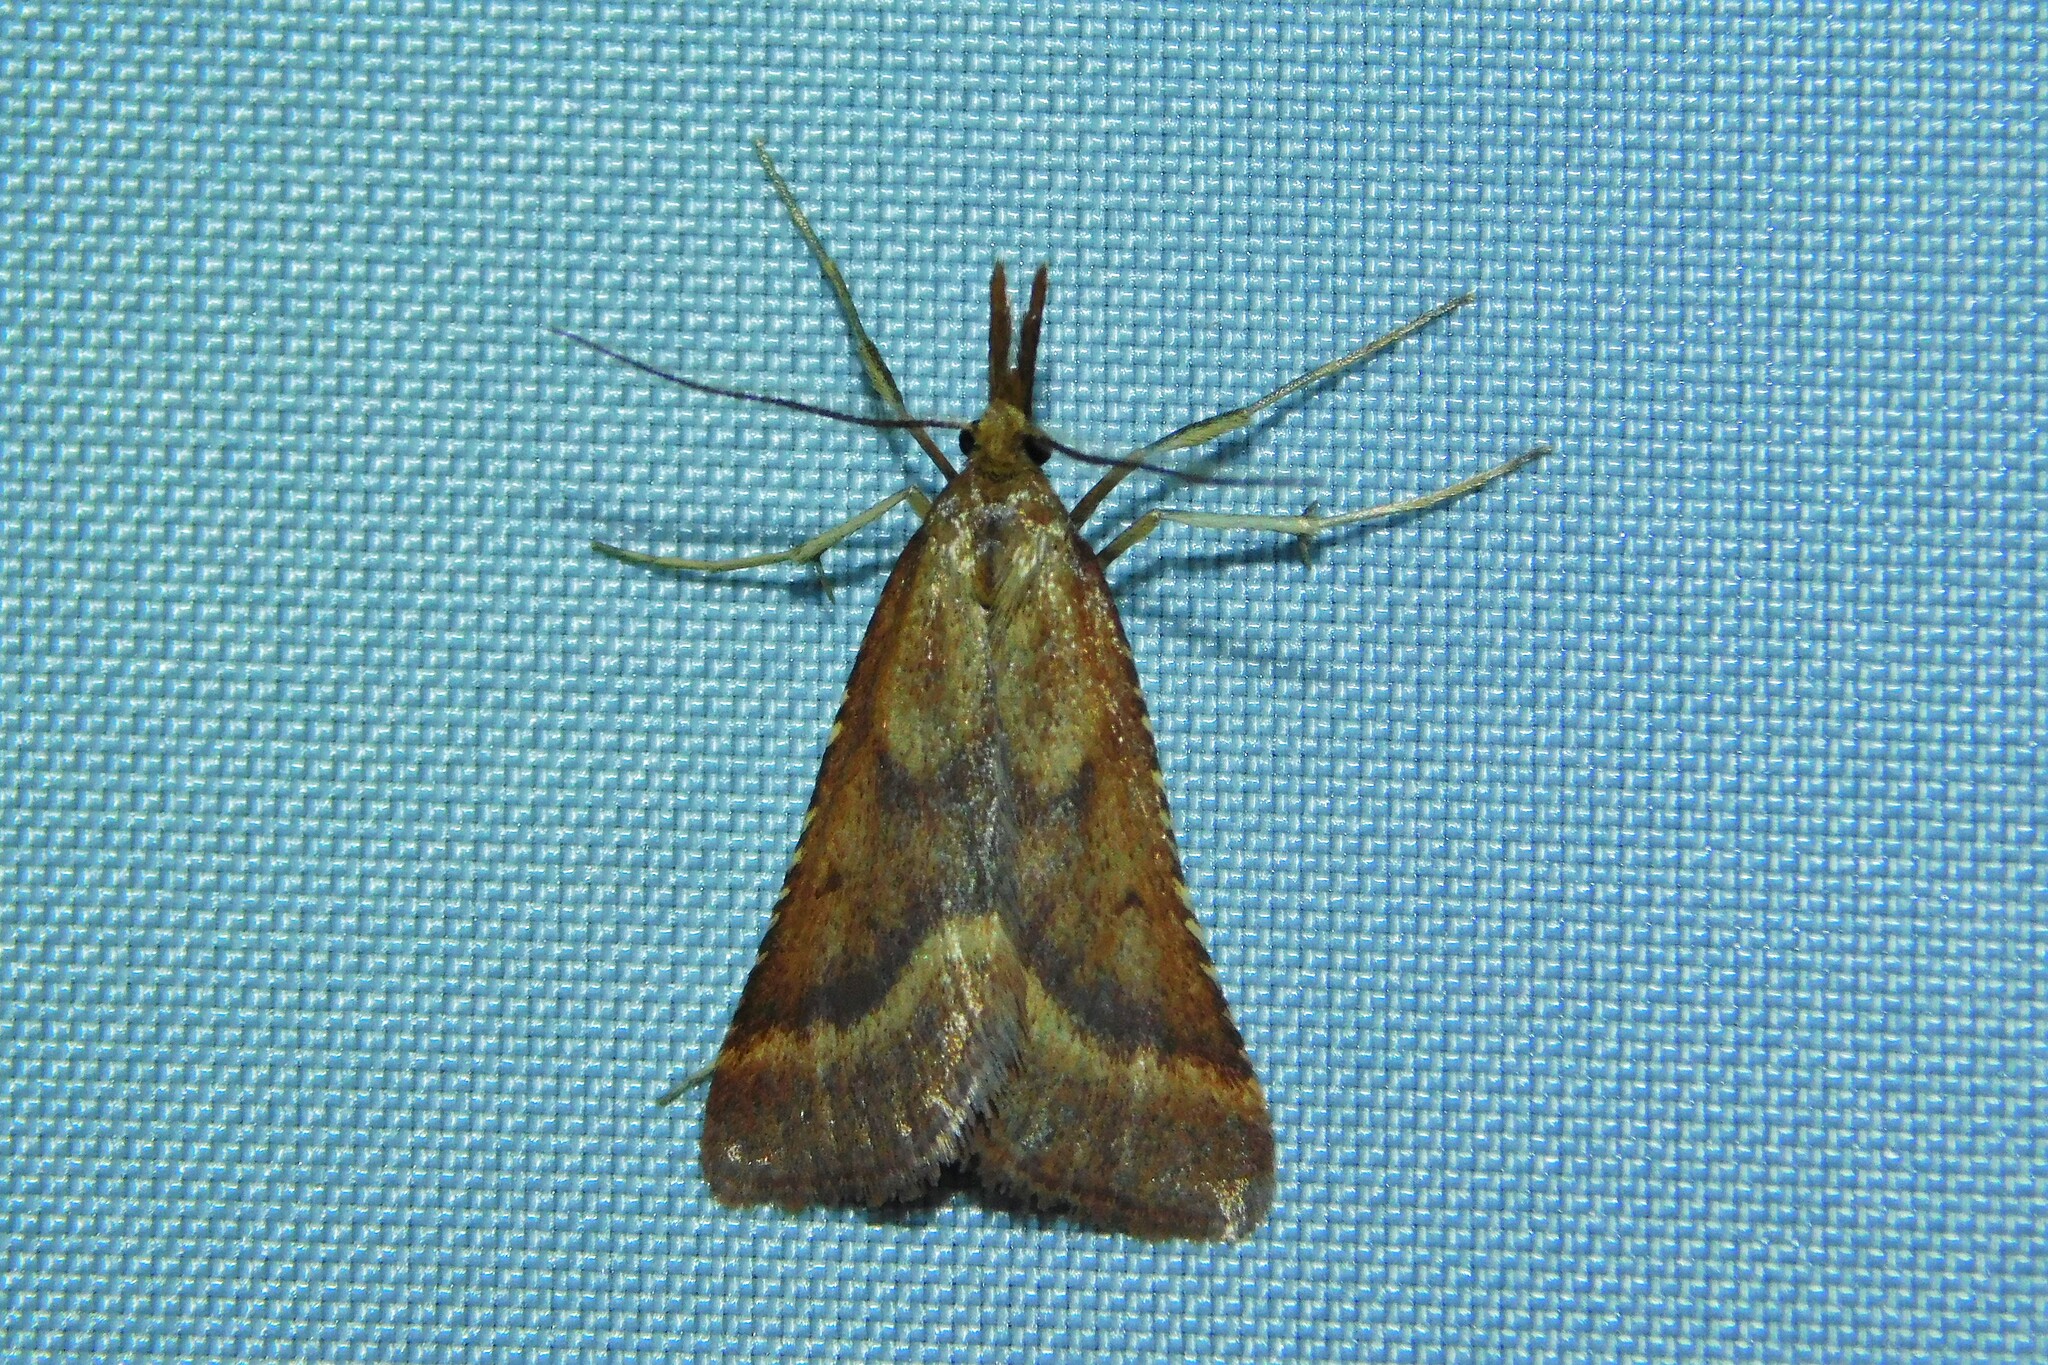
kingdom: Animalia
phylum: Arthropoda
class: Insecta
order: Lepidoptera
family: Pyralidae
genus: Synaphe
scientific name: Synaphe punctalis
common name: Long-legged tabby
